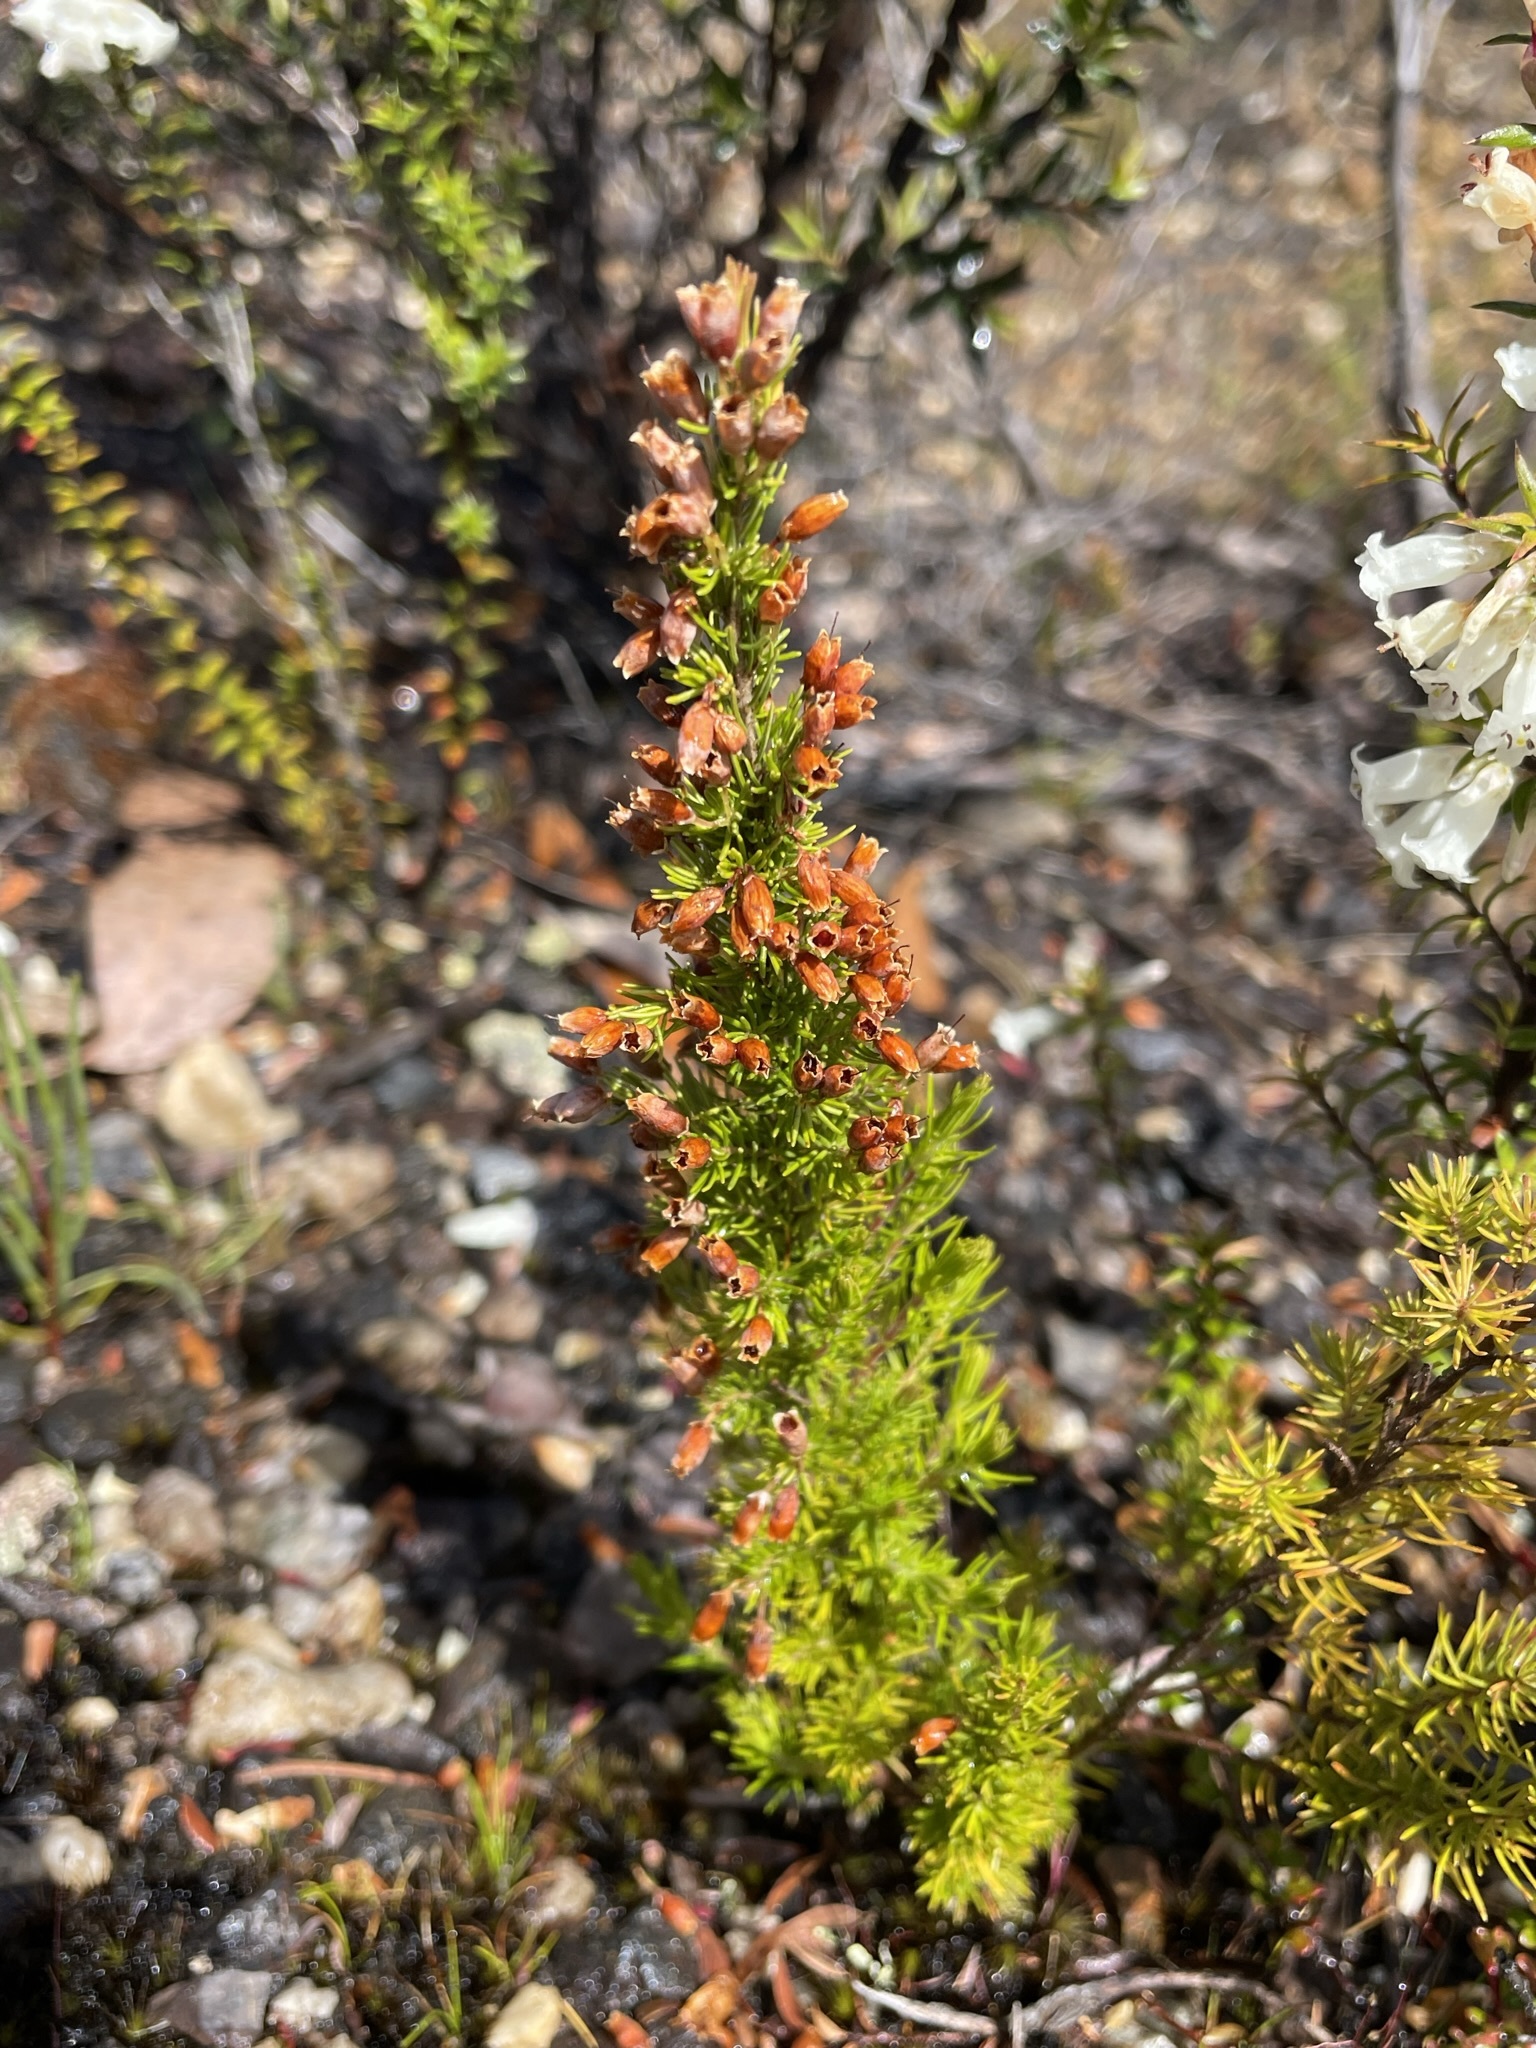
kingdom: Plantae
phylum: Tracheophyta
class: Magnoliopsida
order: Ericales
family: Ericaceae
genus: Erica
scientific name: Erica lusitanica
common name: Spanish heath
